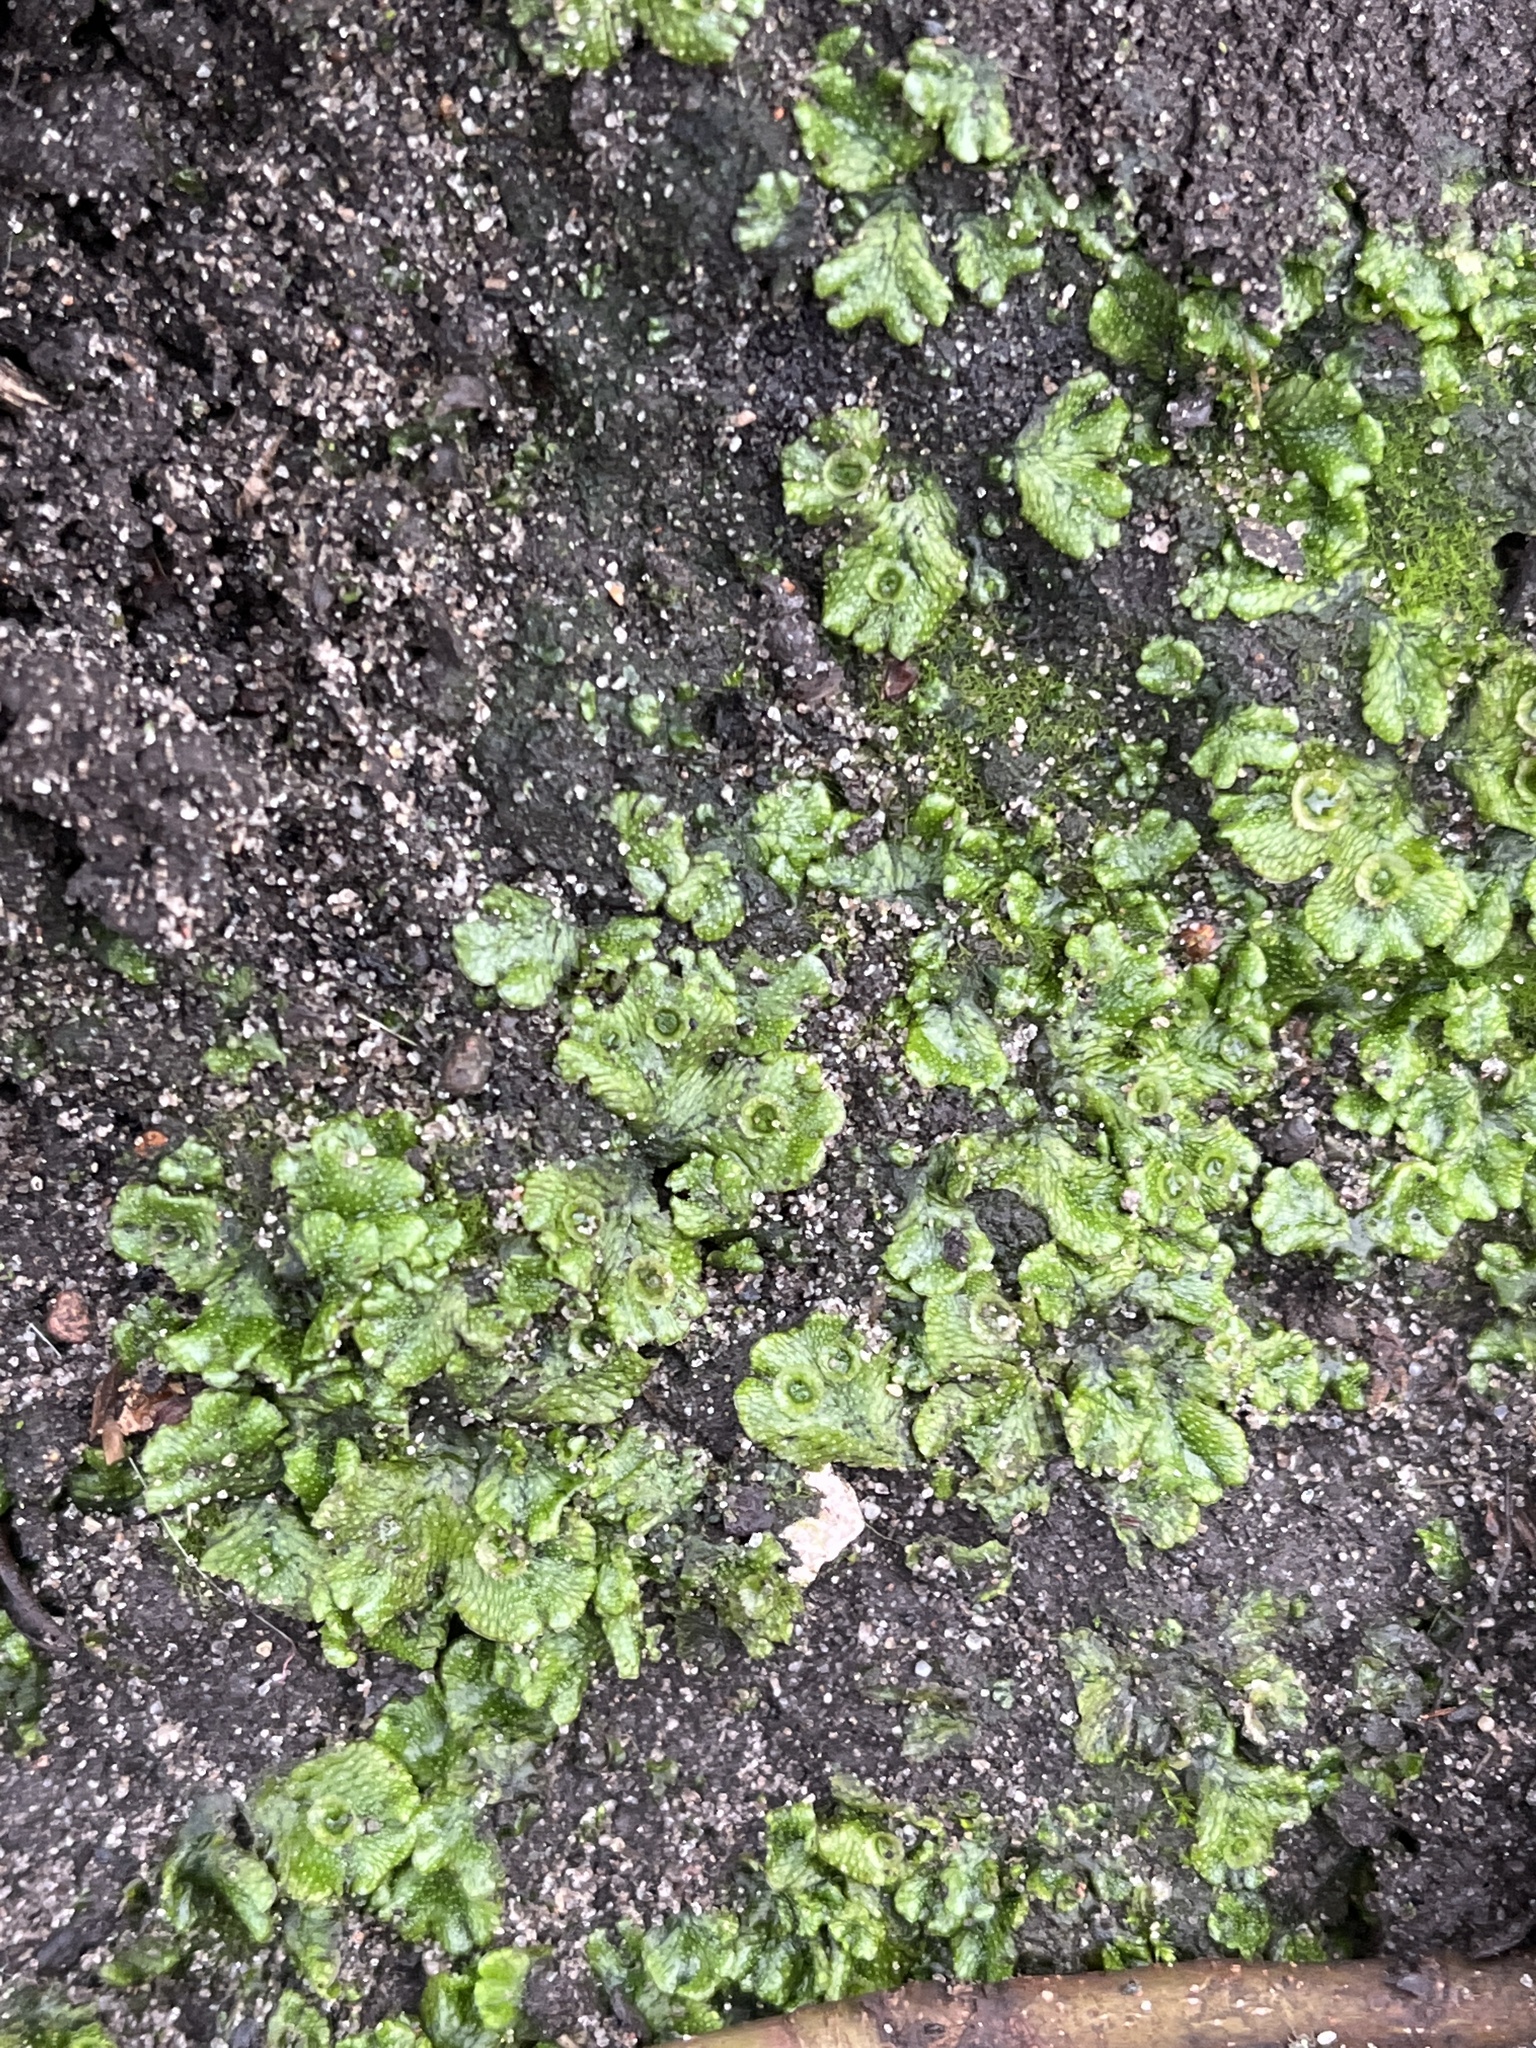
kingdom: Plantae
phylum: Marchantiophyta
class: Marchantiopsida
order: Marchantiales
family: Marchantiaceae
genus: Marchantia
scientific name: Marchantia polymorpha
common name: Common liverwort
